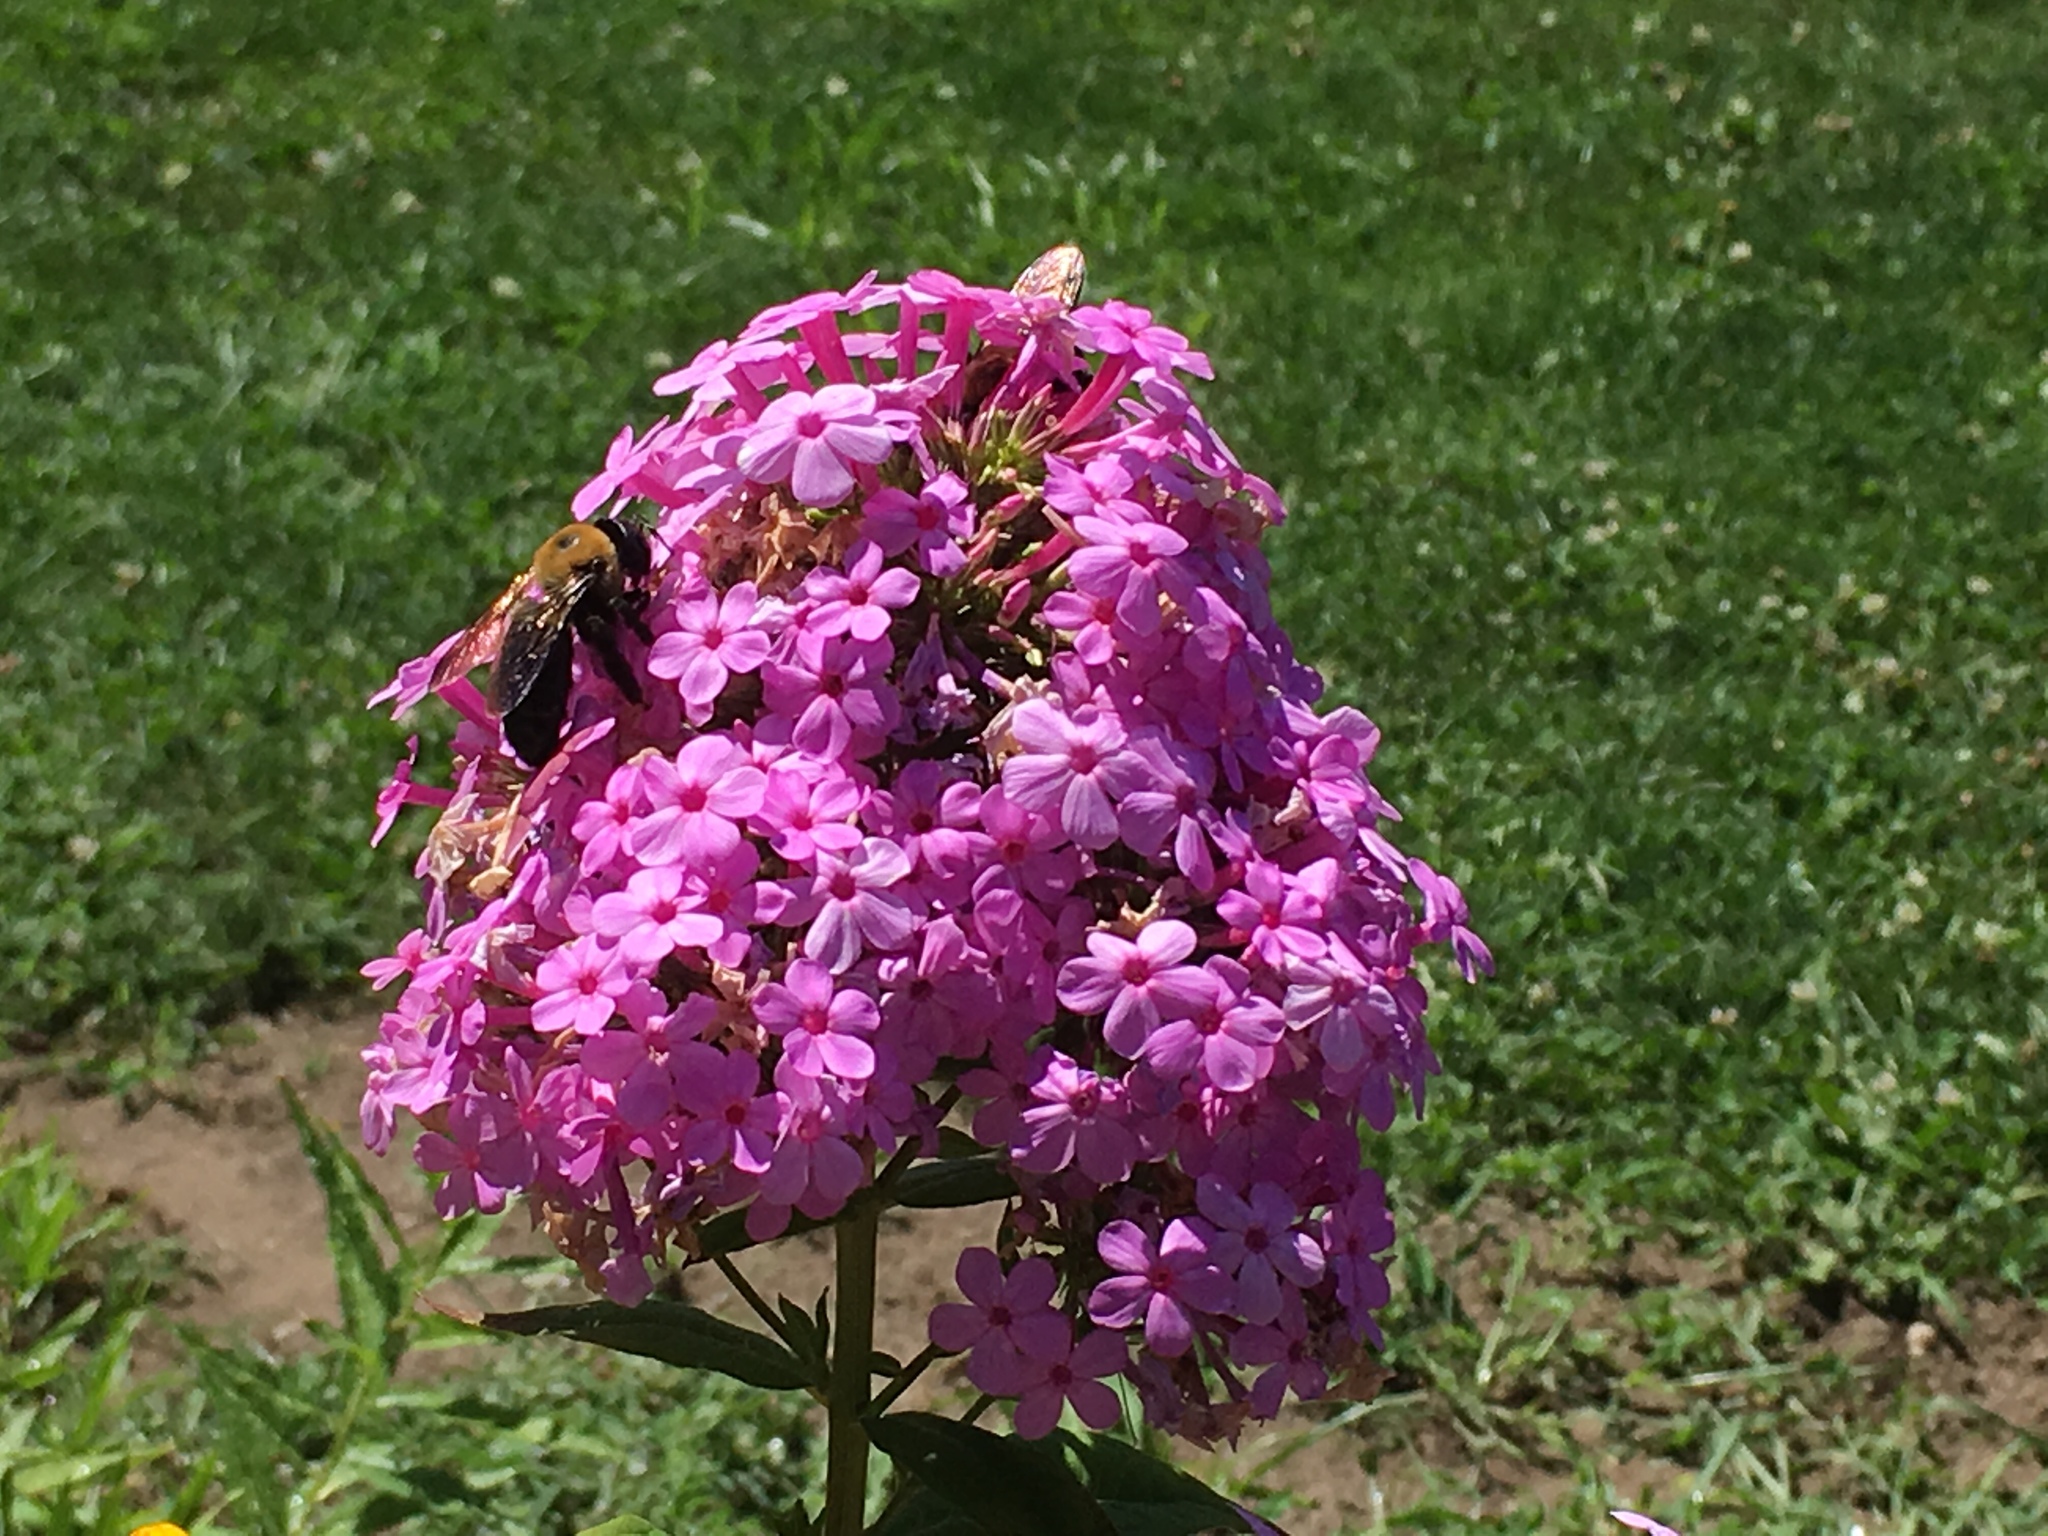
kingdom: Animalia
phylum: Arthropoda
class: Insecta
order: Hymenoptera
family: Apidae
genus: Xylocopa
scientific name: Xylocopa virginica
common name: Carpenter bee
